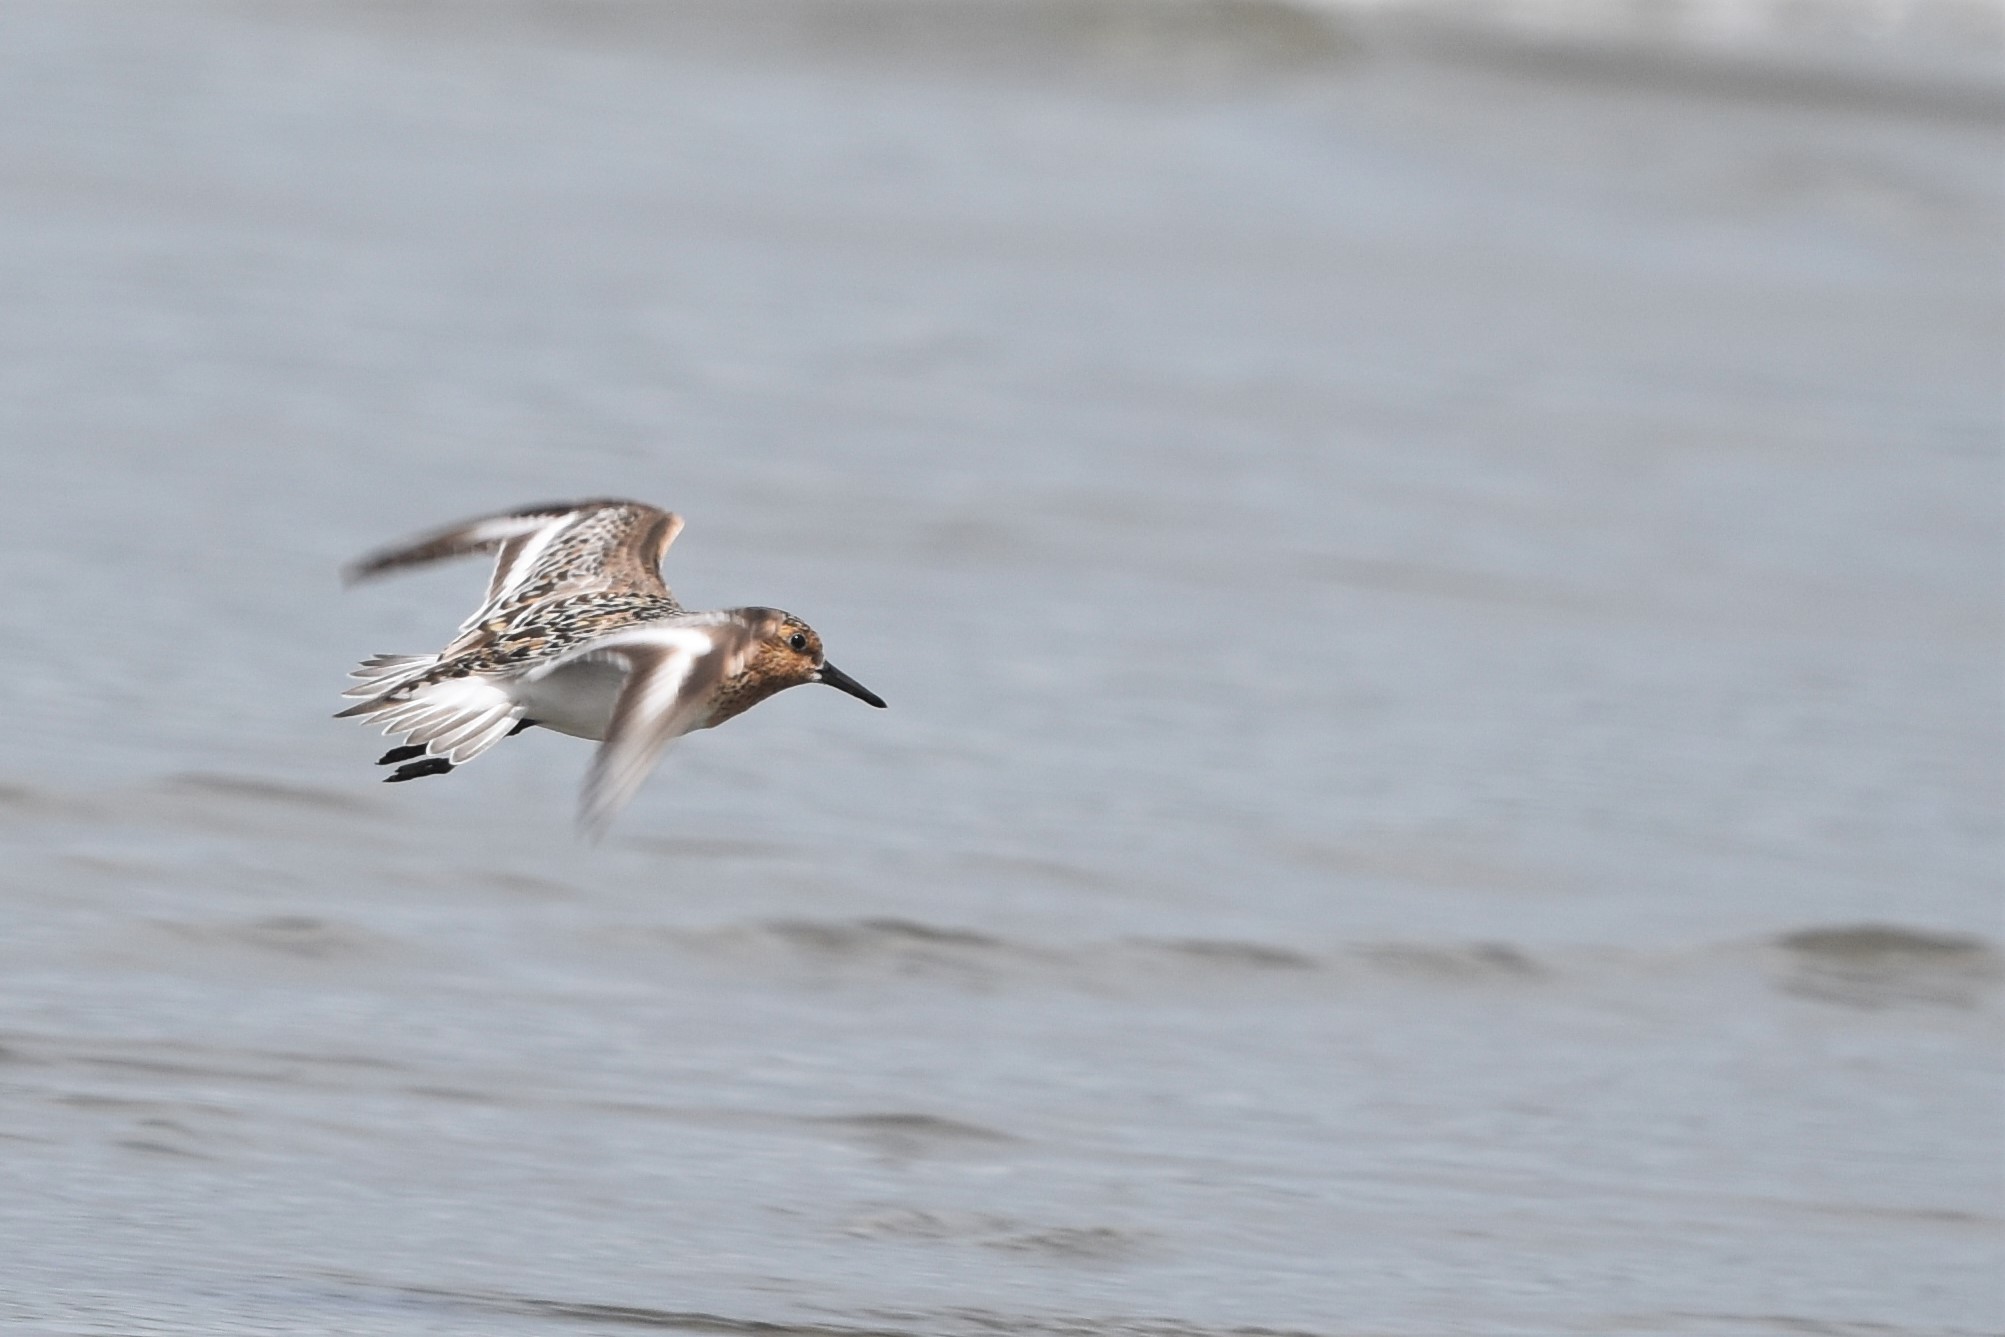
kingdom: Animalia
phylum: Chordata
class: Aves
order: Charadriiformes
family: Scolopacidae
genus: Calidris
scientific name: Calidris alba
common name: Sanderling
